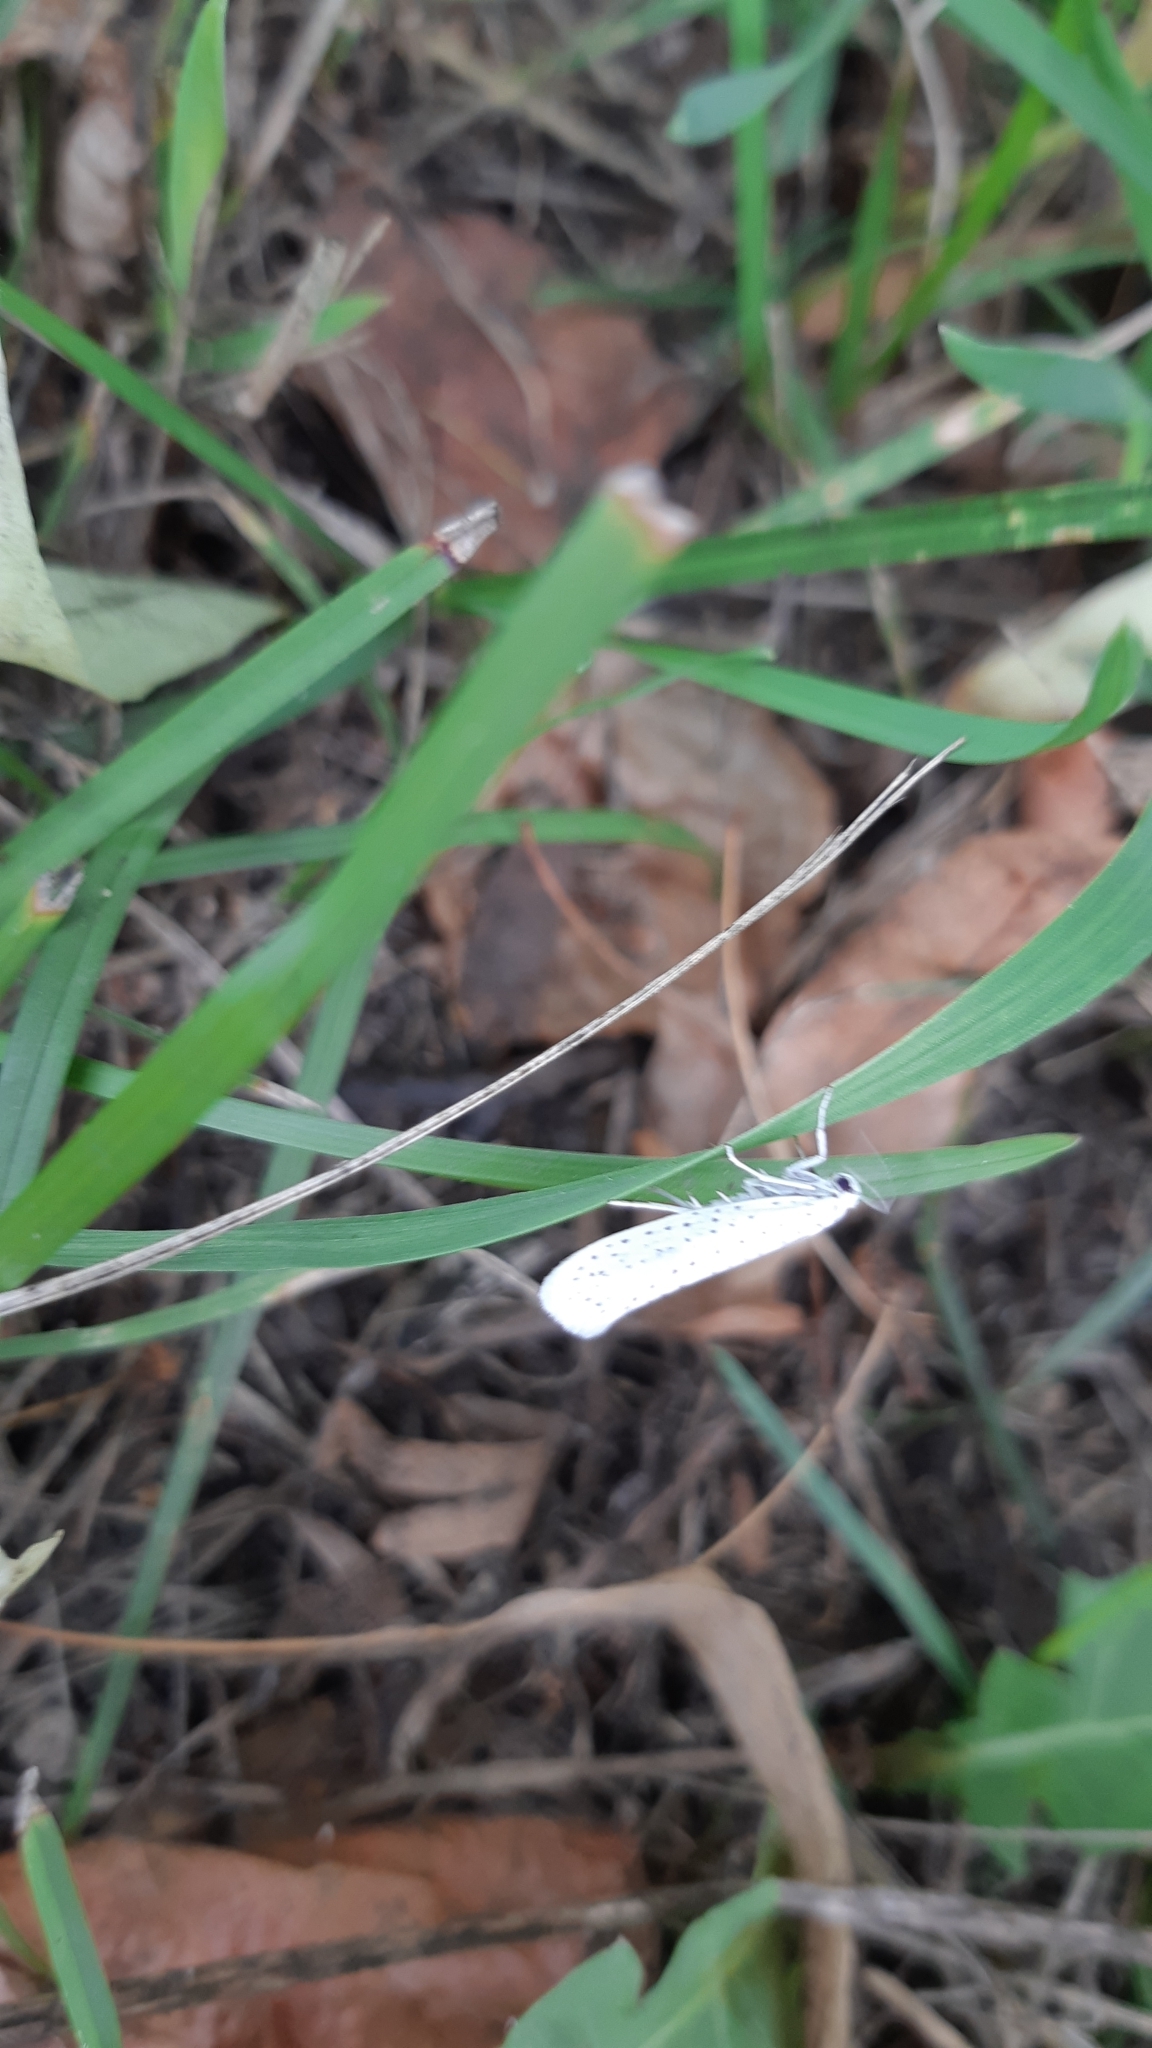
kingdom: Animalia
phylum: Arthropoda
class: Insecta
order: Lepidoptera
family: Yponomeutidae
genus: Yponomeuta
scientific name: Yponomeuta evonymella
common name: Bird-cherry ermine
